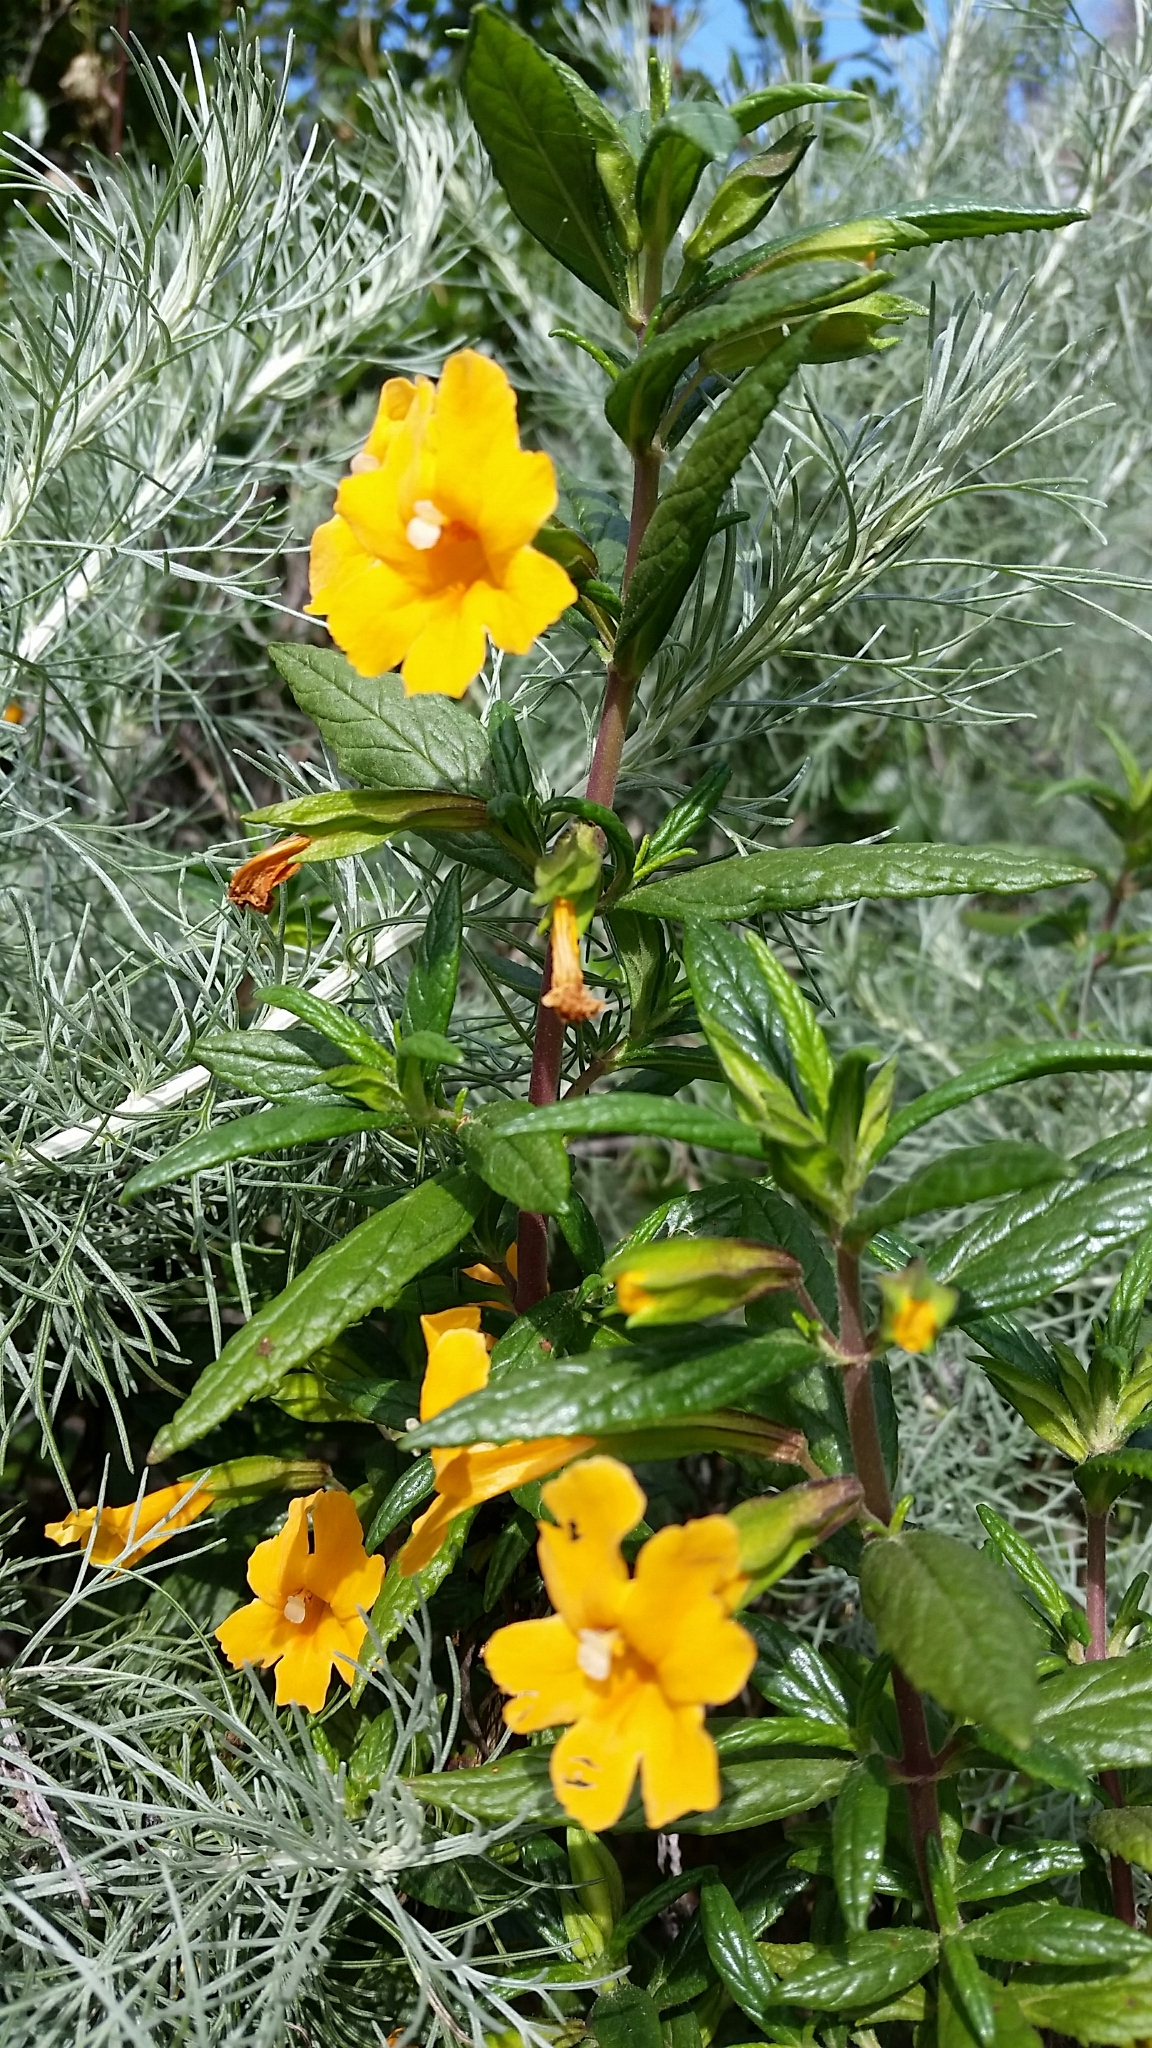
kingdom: Plantae
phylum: Tracheophyta
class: Magnoliopsida
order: Lamiales
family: Phrymaceae
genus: Diplacus
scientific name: Diplacus aurantiacus
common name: Bush monkey-flower
